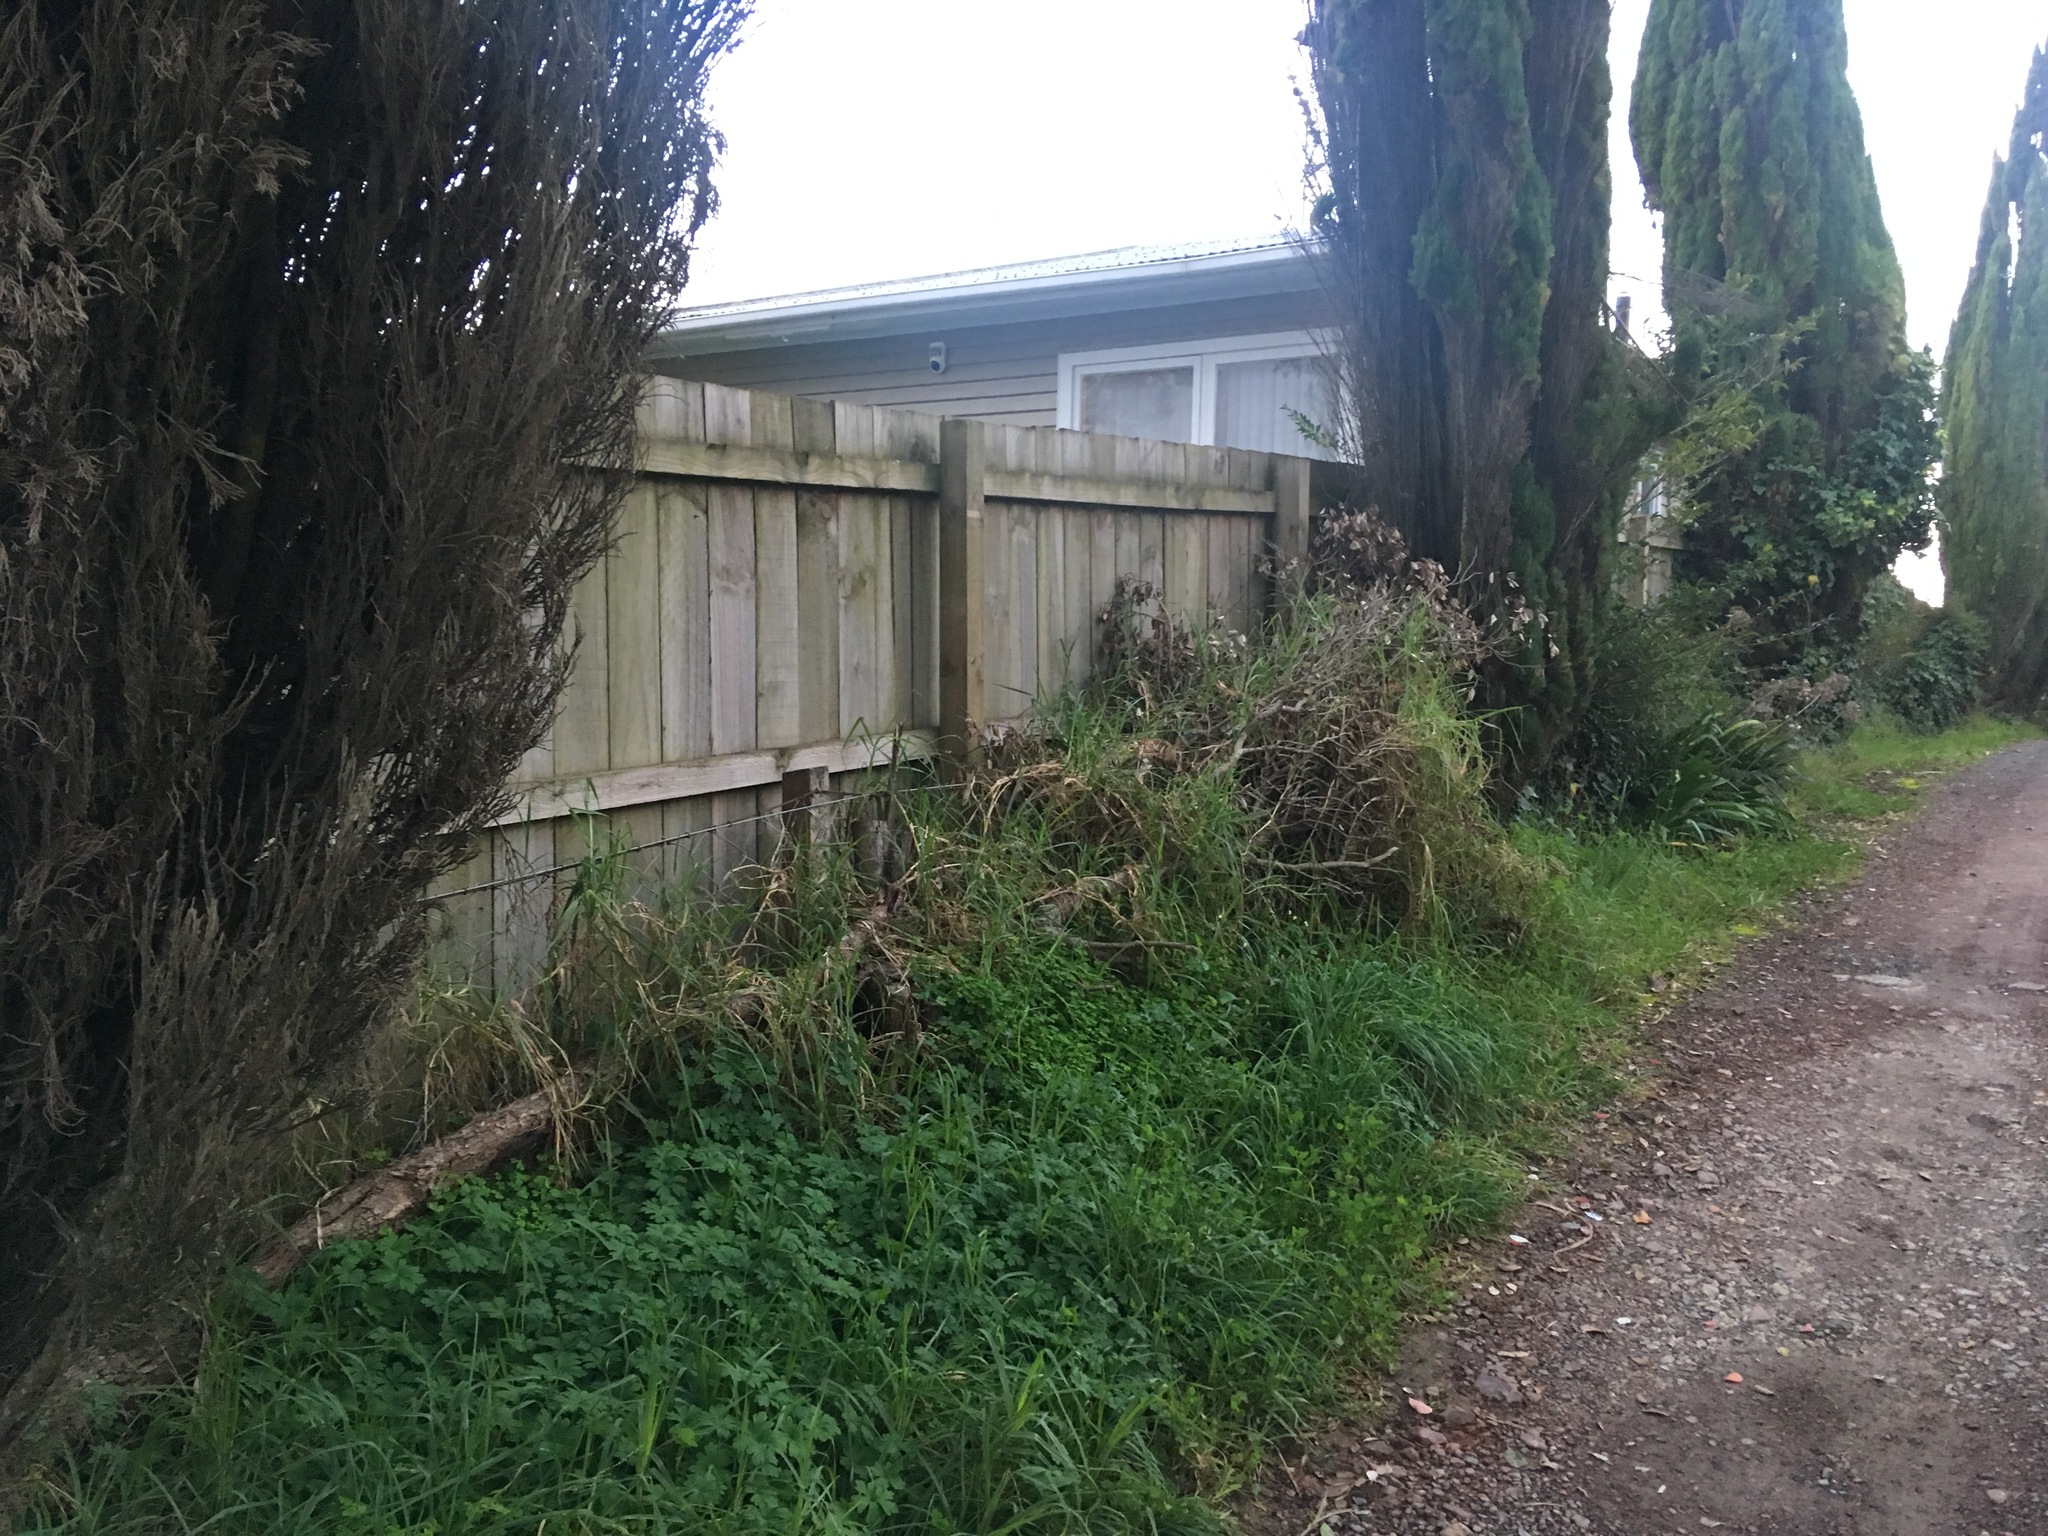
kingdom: Plantae
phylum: Tracheophyta
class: Liliopsida
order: Poales
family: Poaceae
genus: Cenchrus
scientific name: Cenchrus clandestinus
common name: Kikuyugrass
